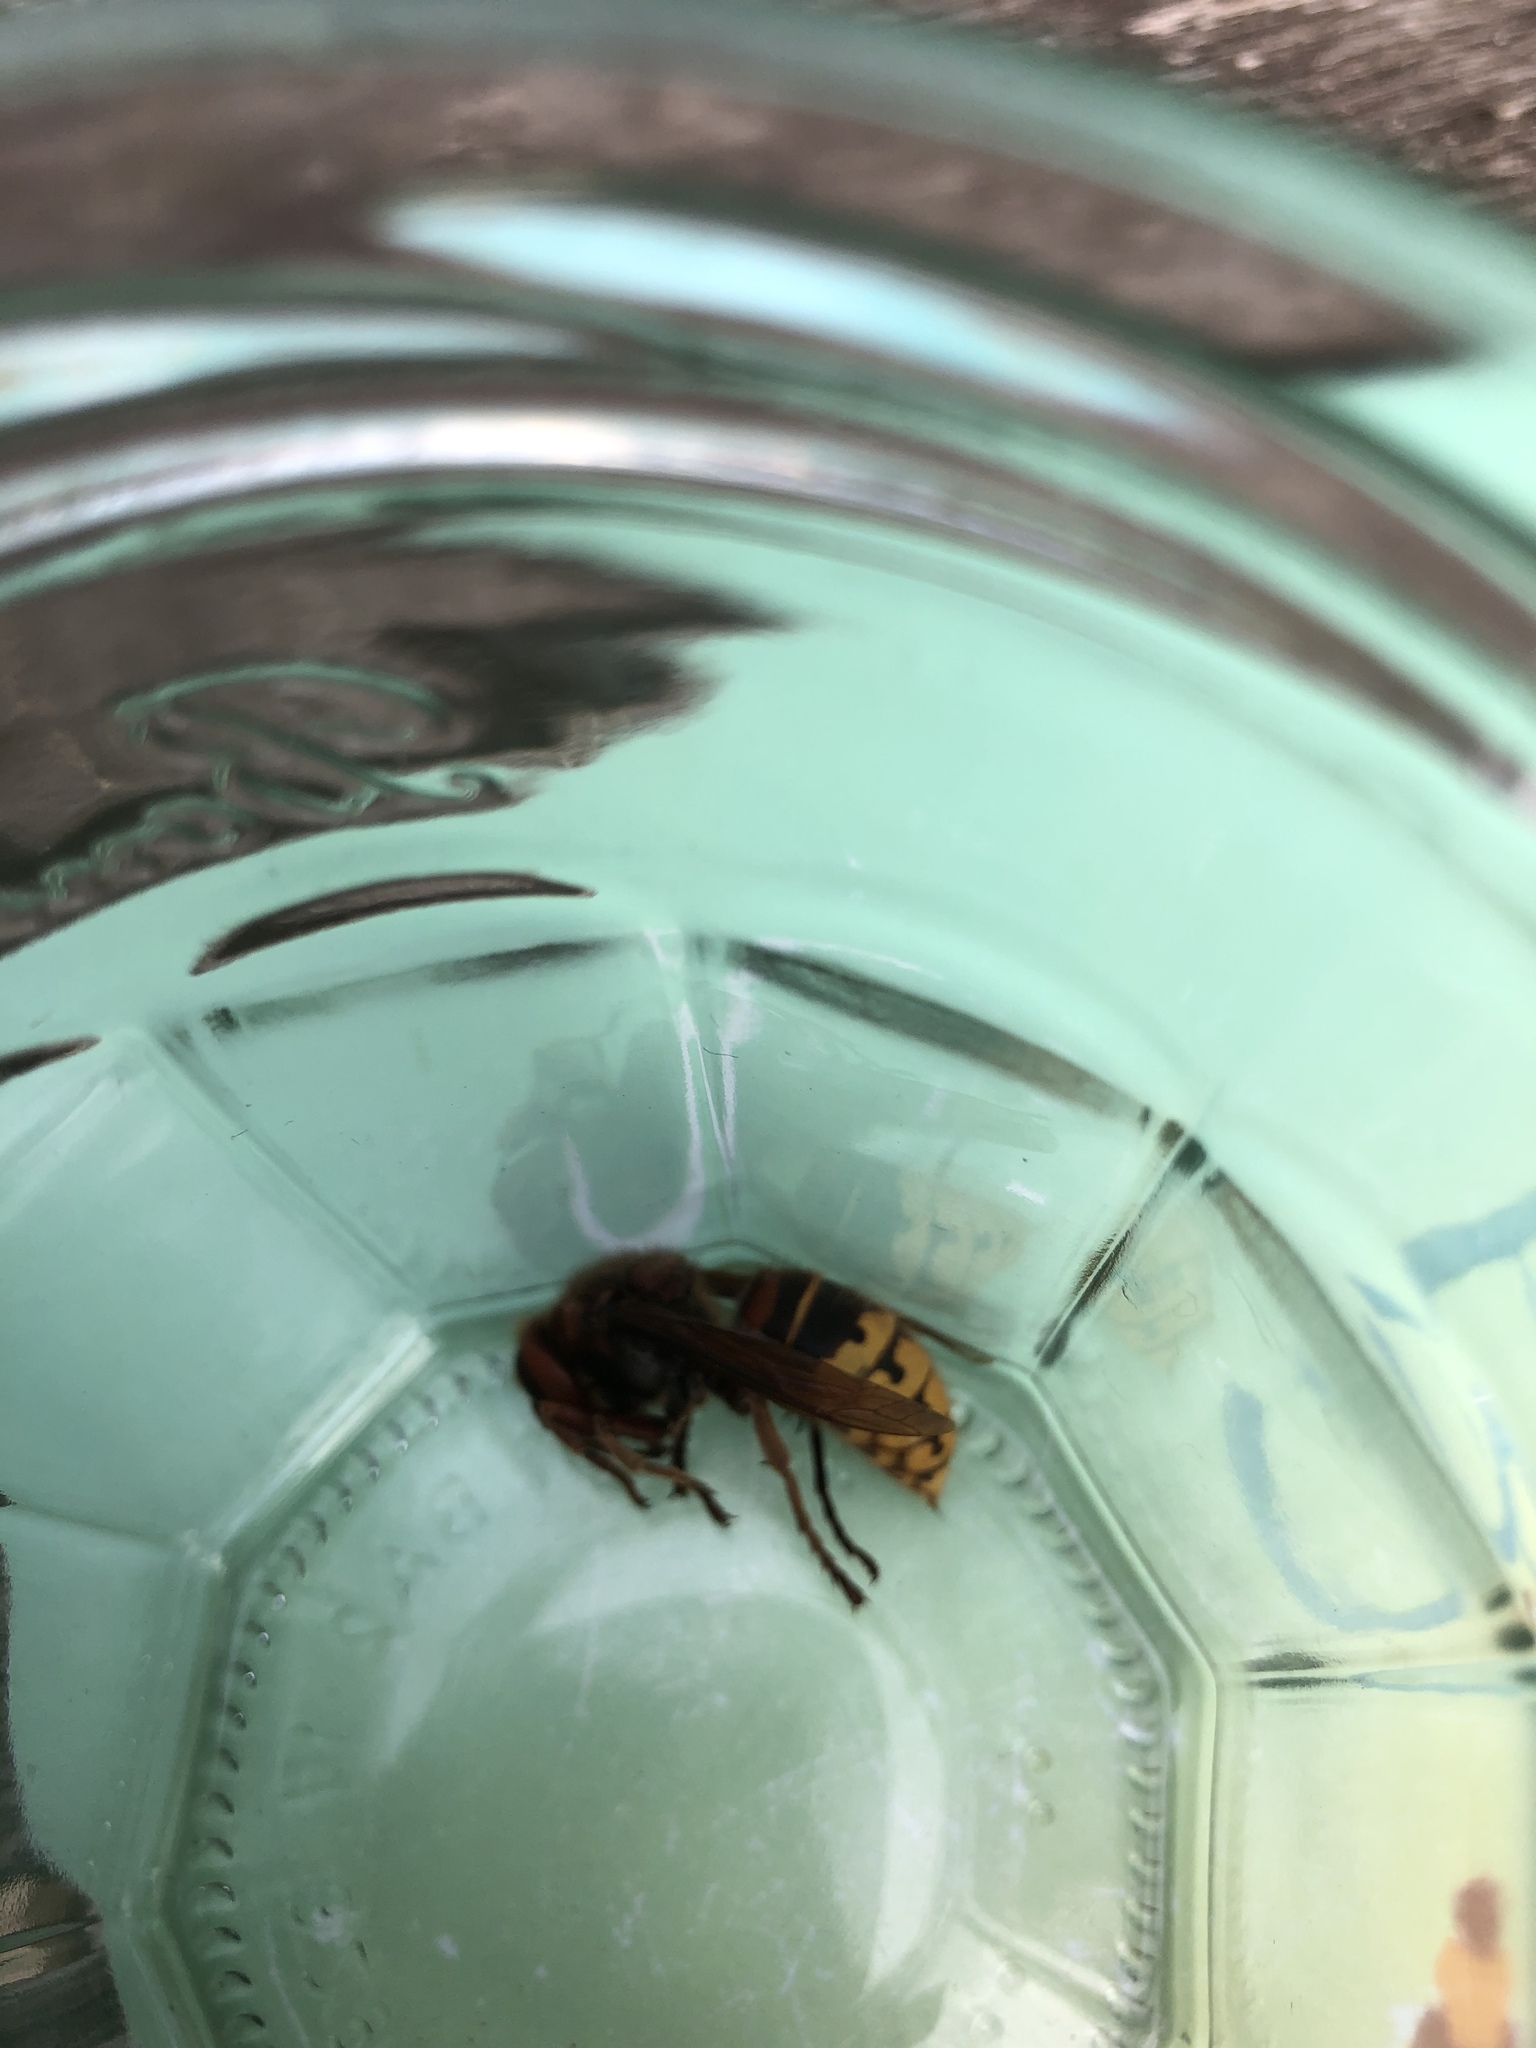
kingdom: Animalia
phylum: Arthropoda
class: Insecta
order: Hymenoptera
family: Vespidae
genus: Vespa
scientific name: Vespa crabro
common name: Hornet
